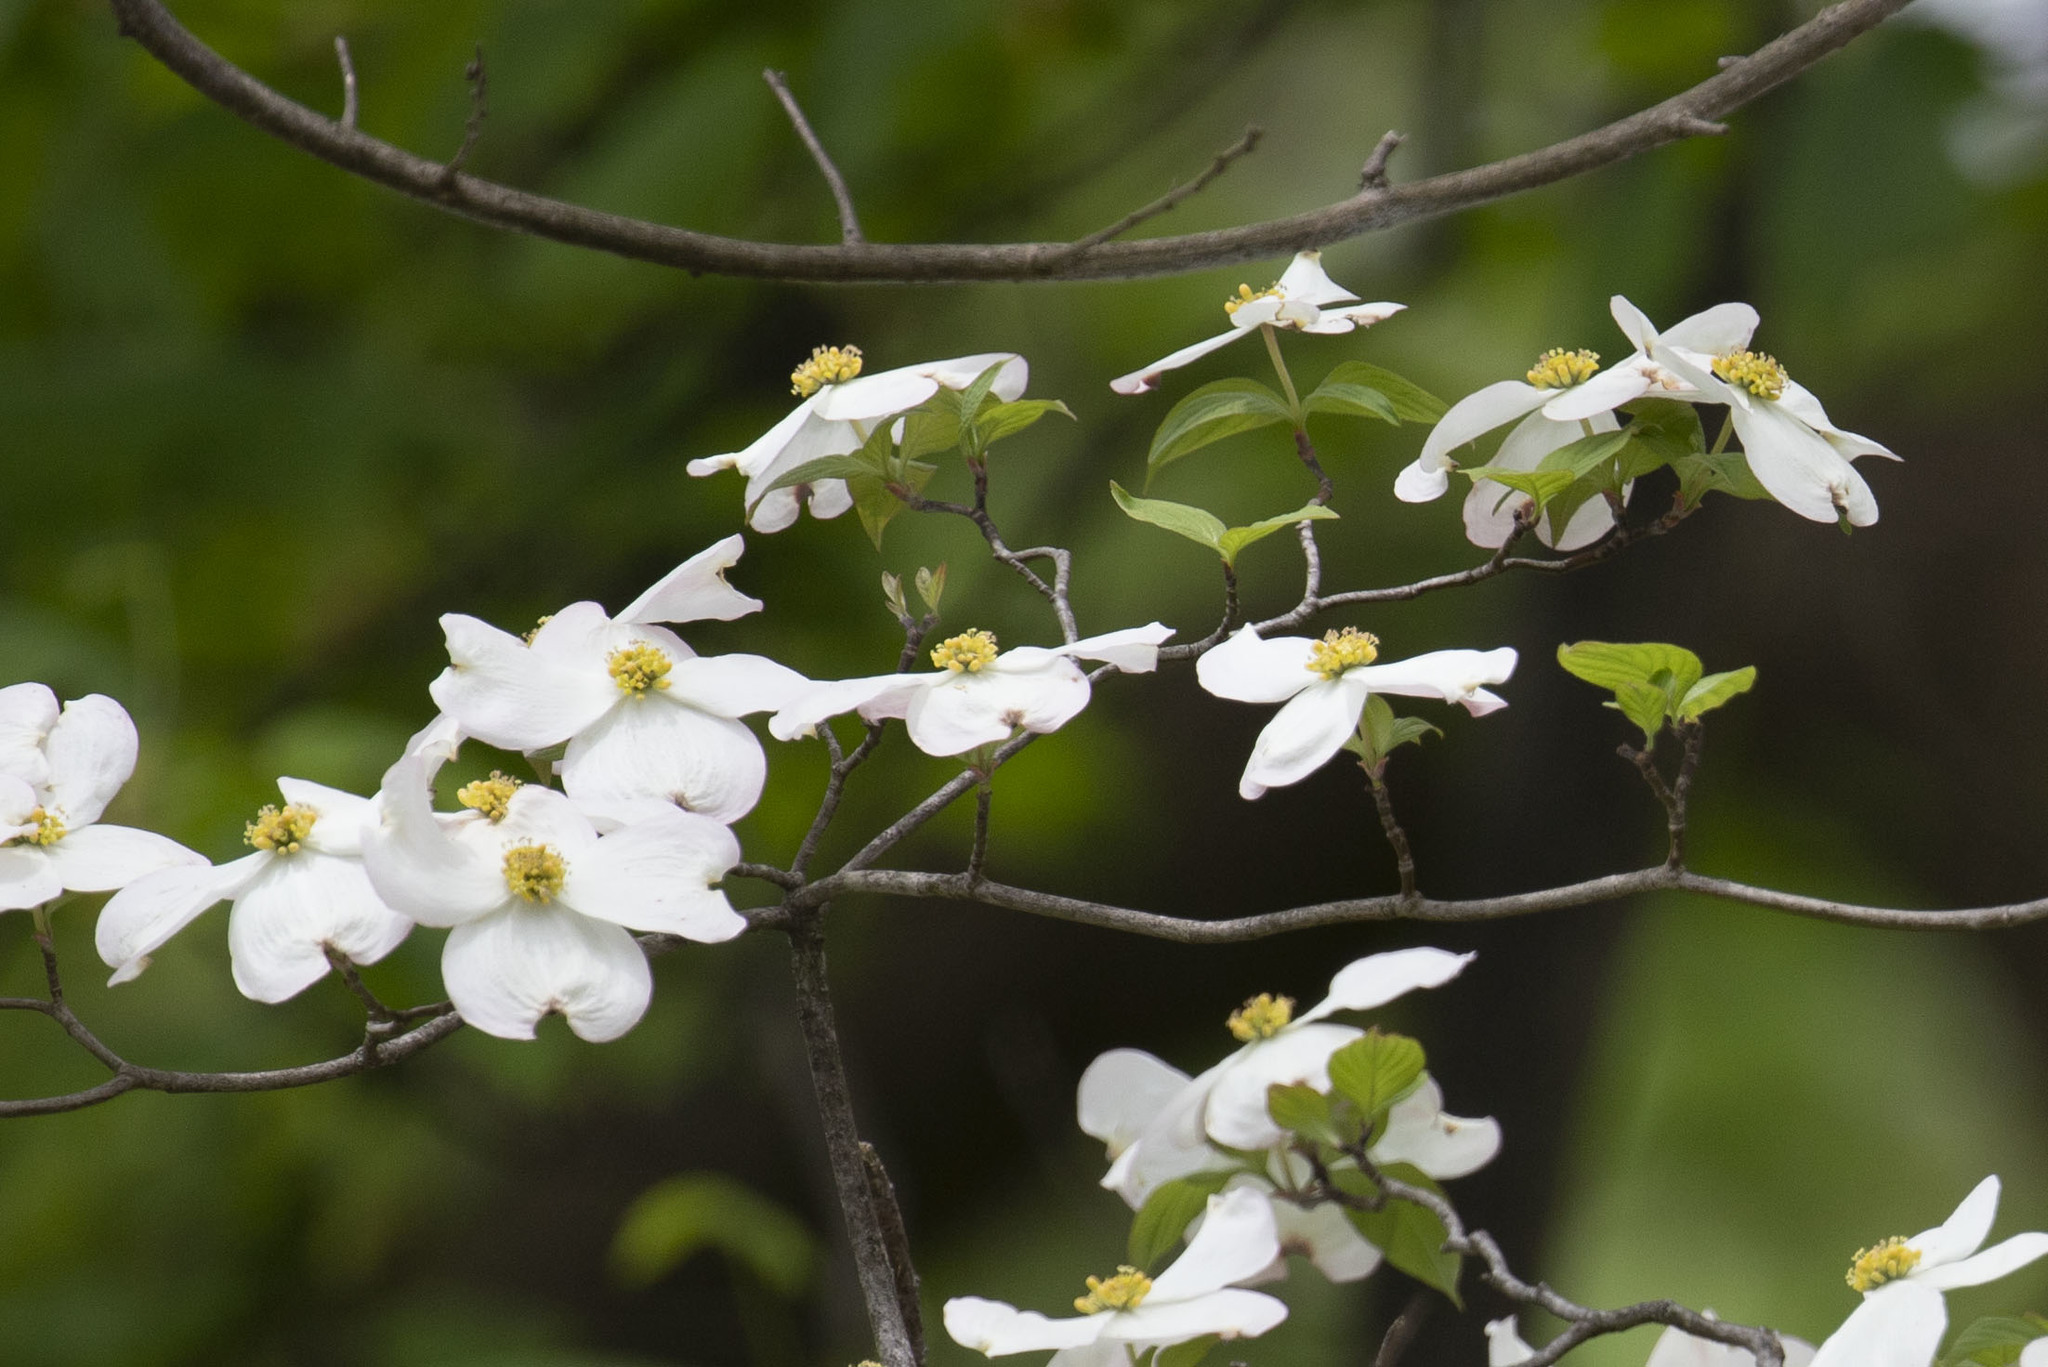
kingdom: Plantae
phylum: Tracheophyta
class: Magnoliopsida
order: Cornales
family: Cornaceae
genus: Cornus
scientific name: Cornus florida
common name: Flowering dogwood
